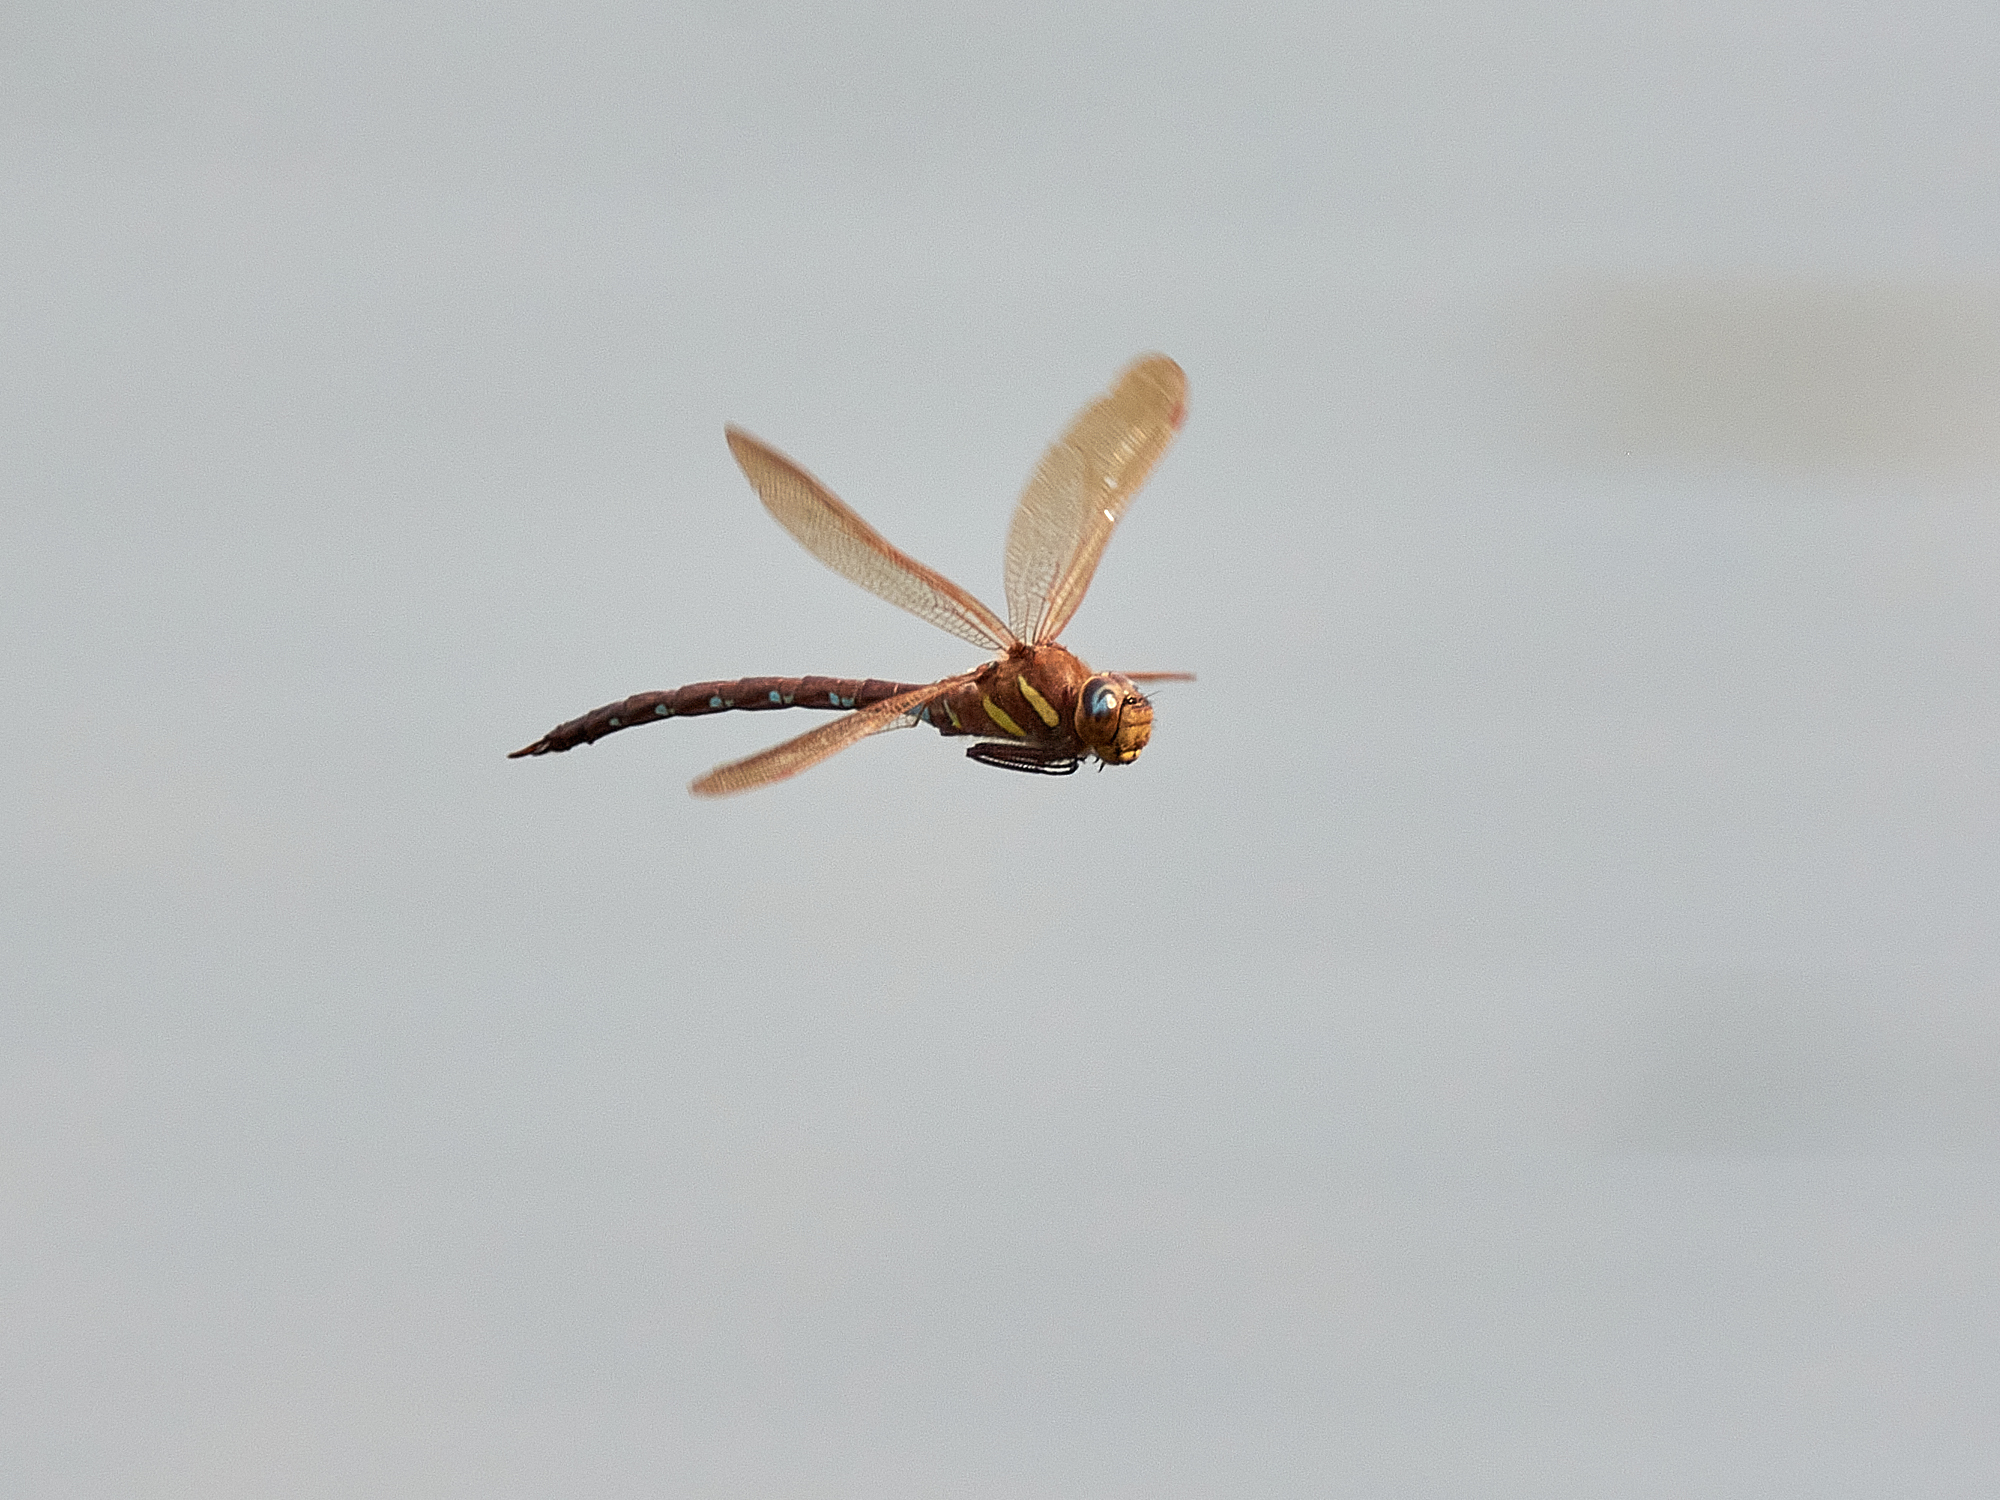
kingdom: Animalia
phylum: Arthropoda
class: Insecta
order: Odonata
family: Aeshnidae
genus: Aeshna
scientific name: Aeshna grandis
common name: Brown hawker
